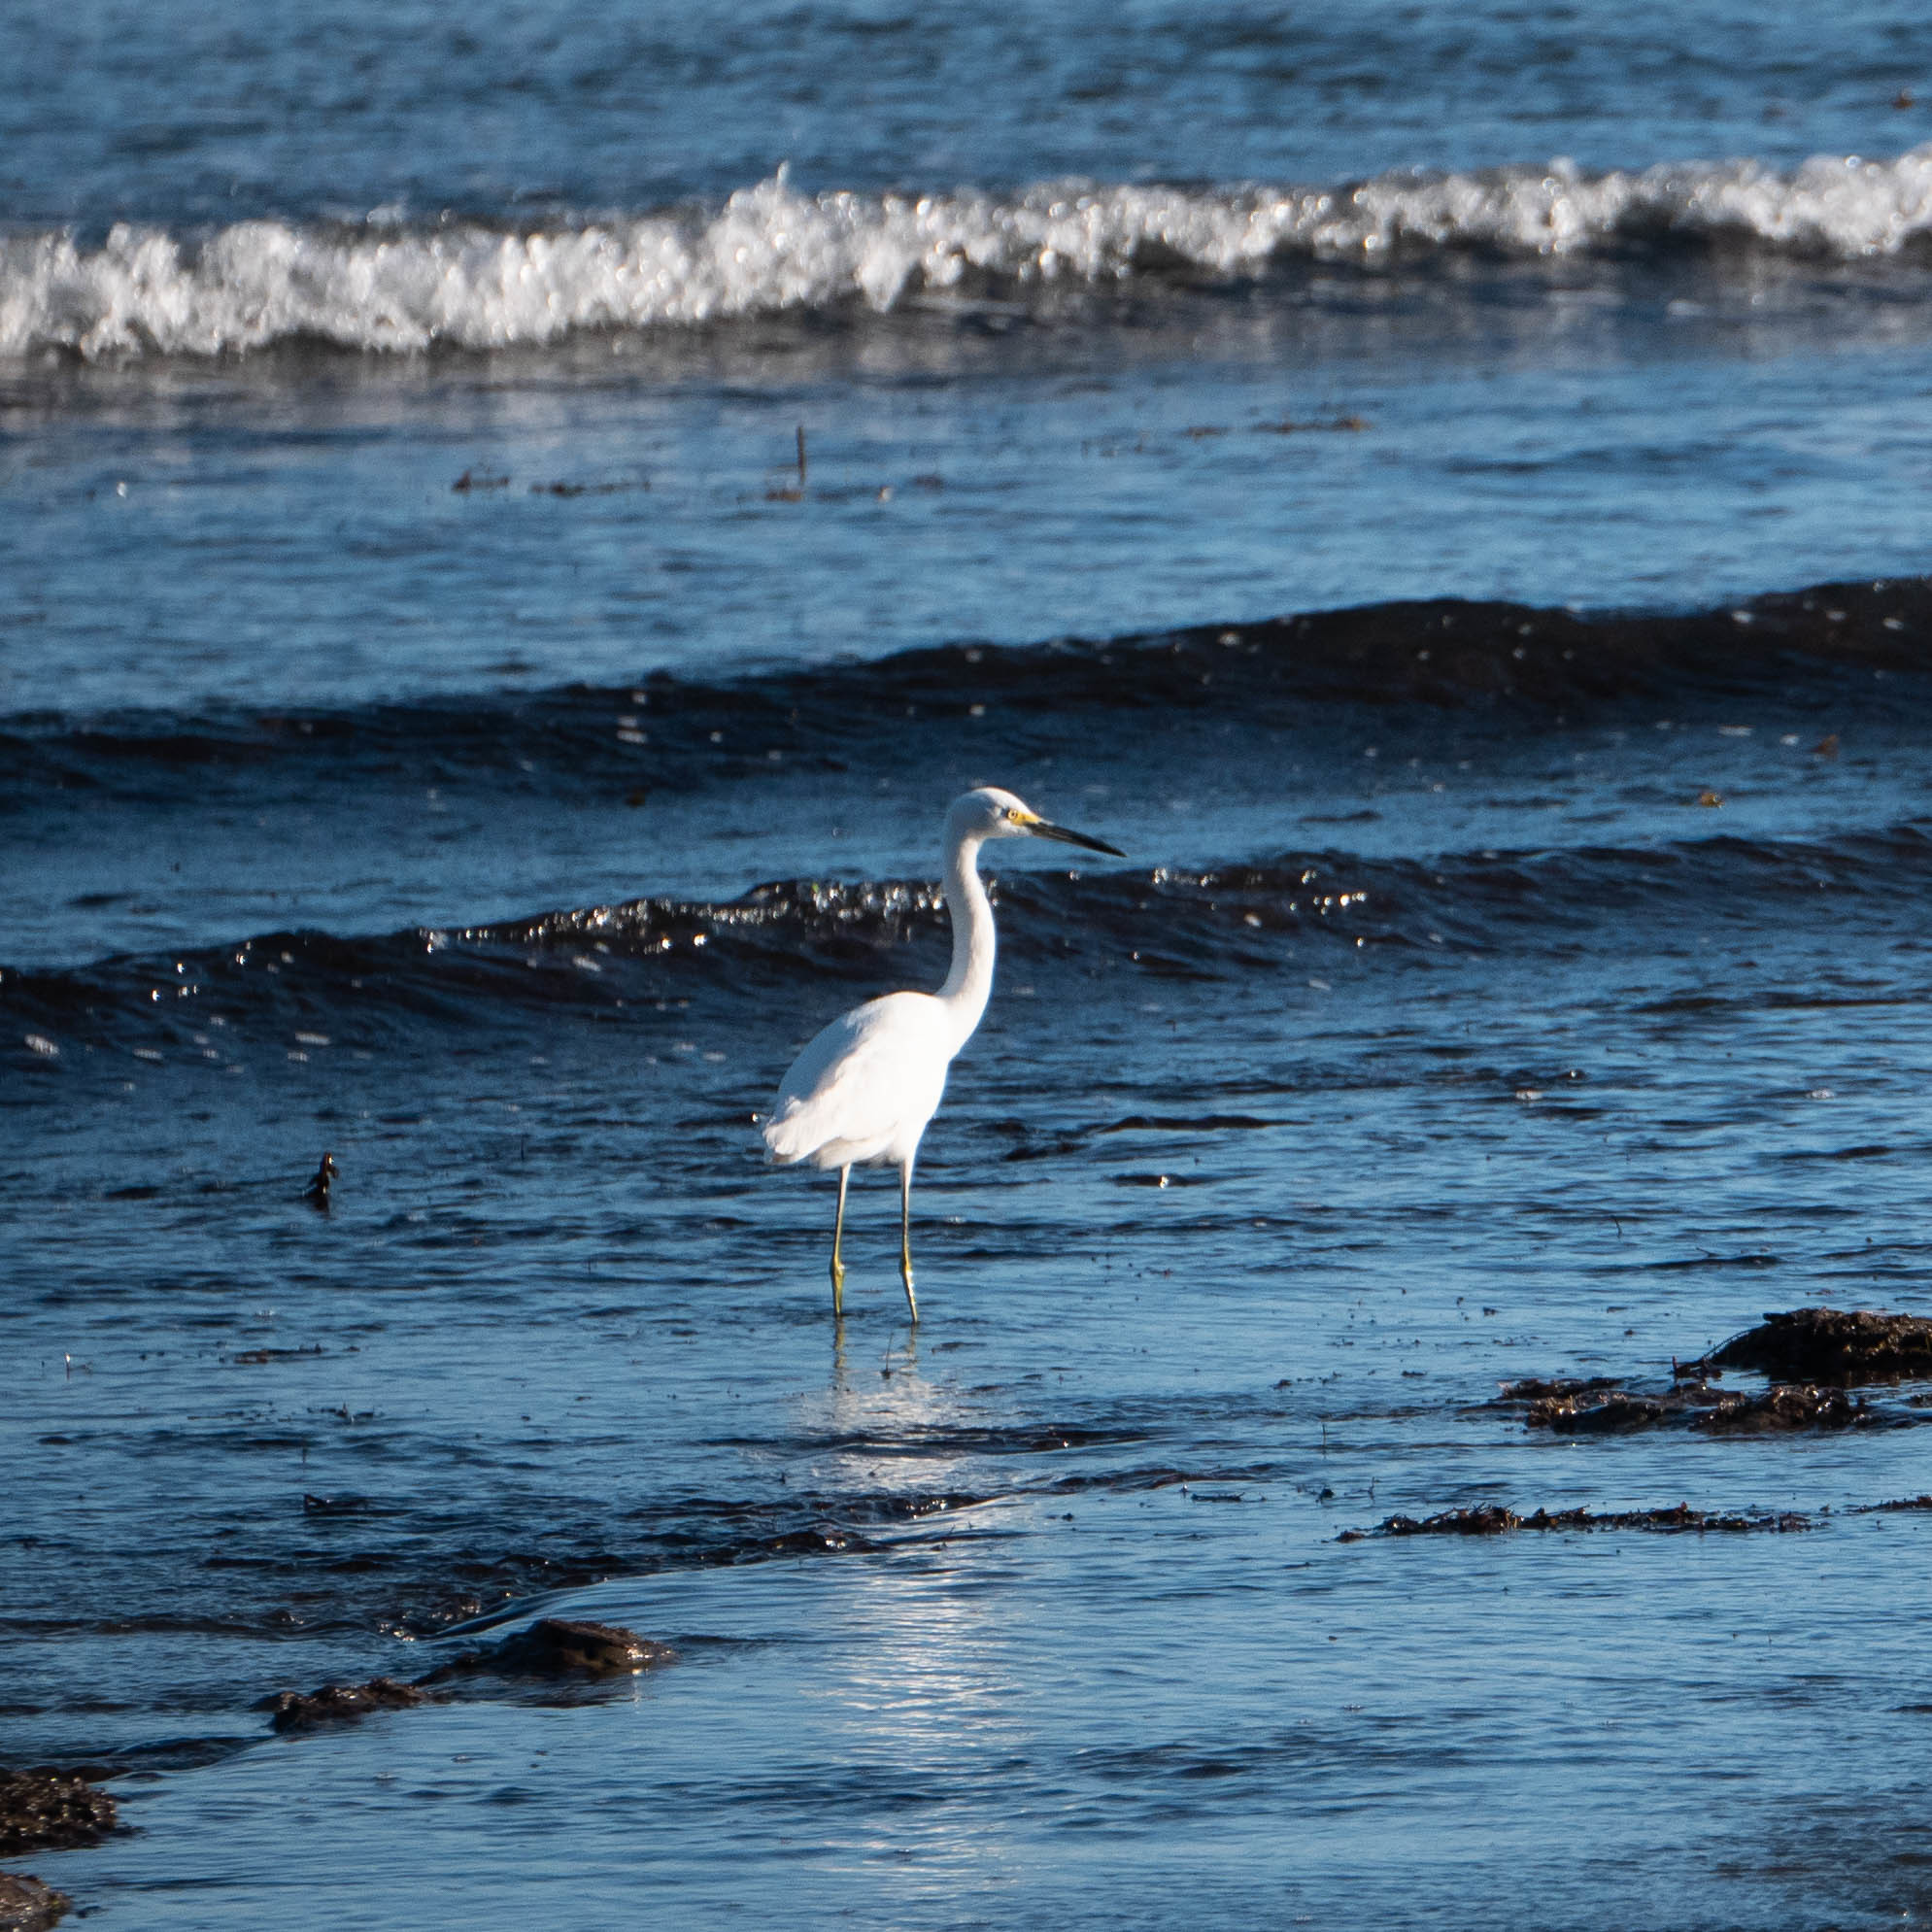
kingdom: Animalia
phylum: Chordata
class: Aves
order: Pelecaniformes
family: Ardeidae
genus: Egretta
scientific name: Egretta thula
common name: Snowy egret
